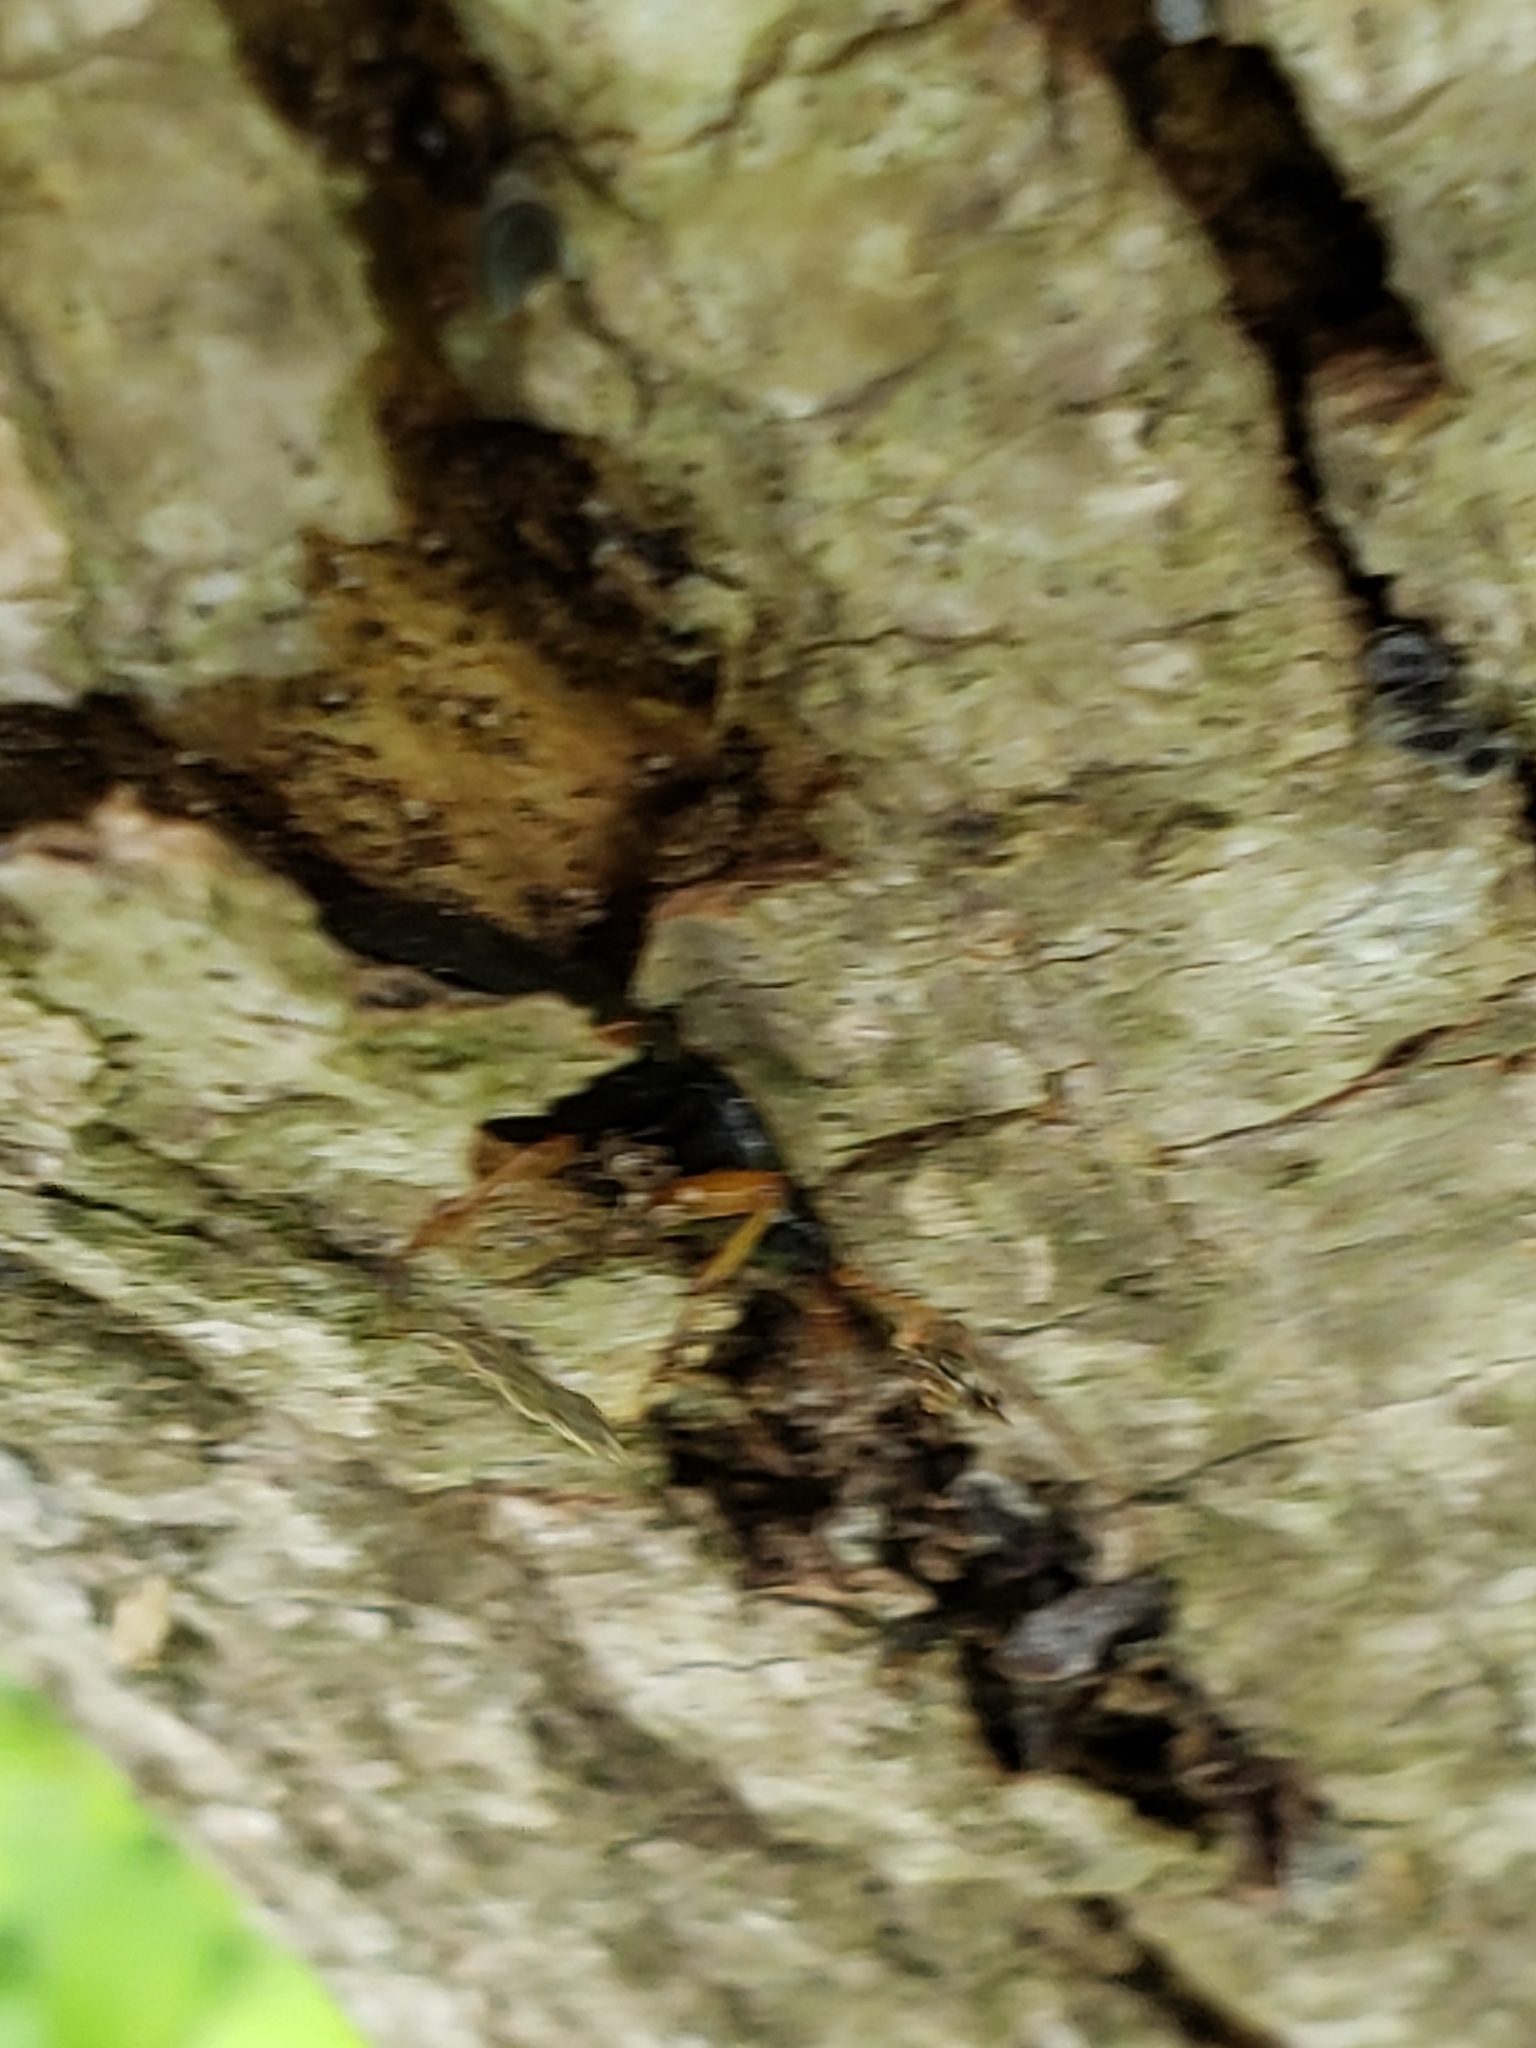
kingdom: Animalia
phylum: Arthropoda
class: Insecta
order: Coleoptera
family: Carabidae
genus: Chlaenius
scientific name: Chlaenius aestivus
